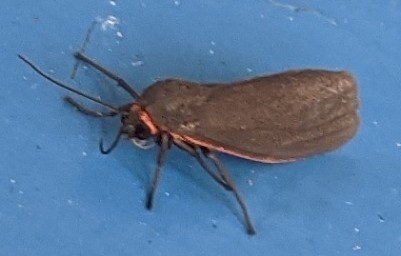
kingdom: Animalia
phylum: Arthropoda
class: Insecta
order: Lepidoptera
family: Erebidae
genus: Virbia
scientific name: Virbia laeta
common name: Joyful holomelina moth
